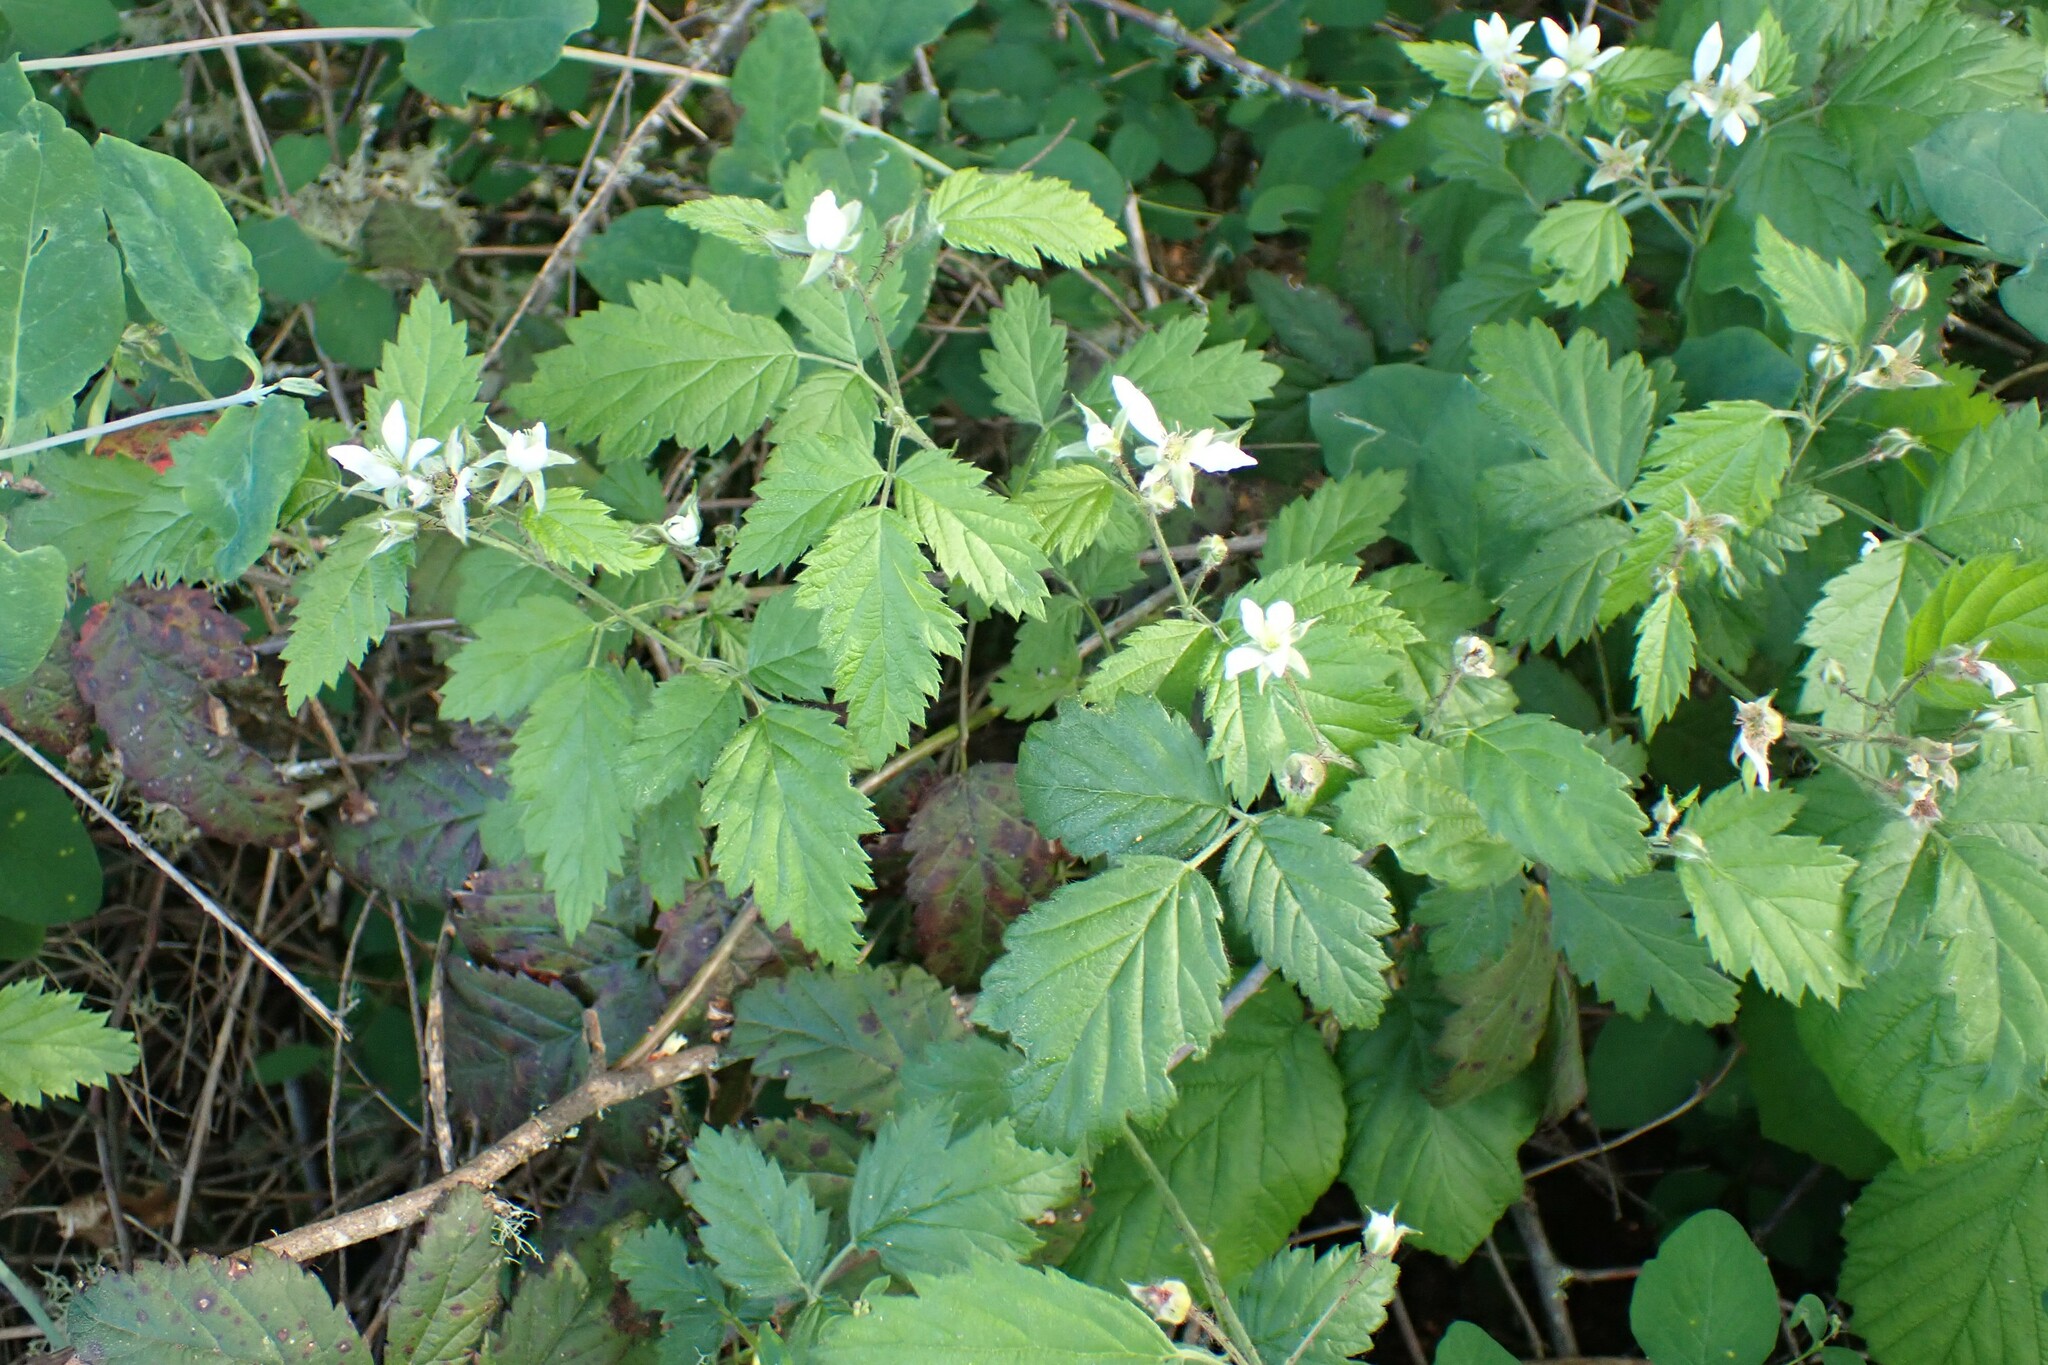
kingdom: Plantae
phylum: Tracheophyta
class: Magnoliopsida
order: Rosales
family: Rosaceae
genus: Rubus
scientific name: Rubus ursinus
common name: Pacific blackberry
